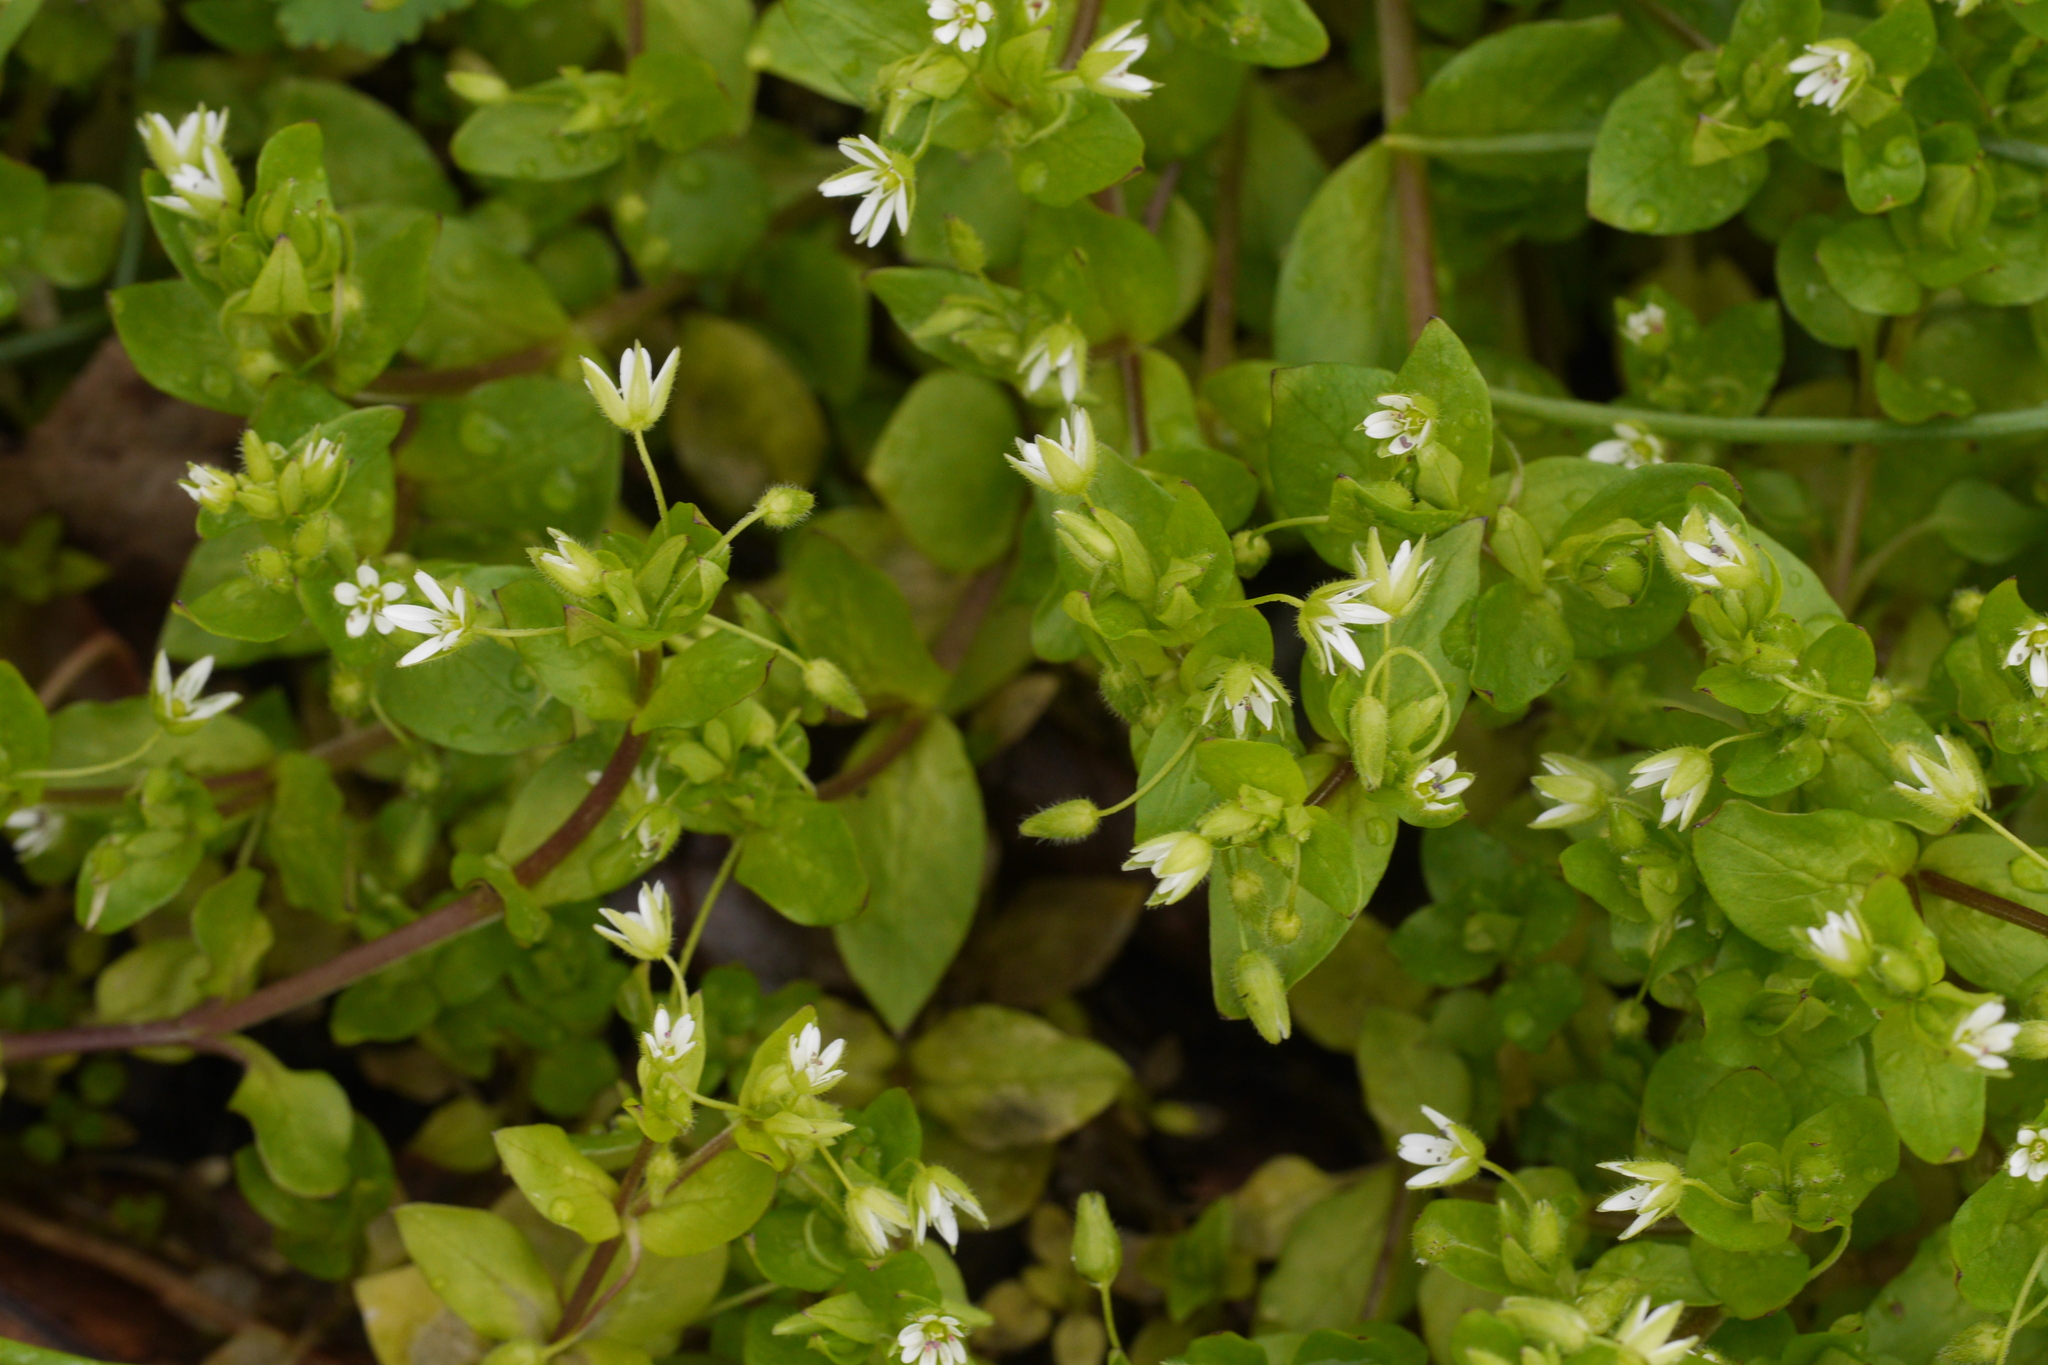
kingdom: Plantae
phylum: Tracheophyta
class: Magnoliopsida
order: Caryophyllales
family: Caryophyllaceae
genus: Stellaria
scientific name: Stellaria media
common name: Common chickweed
